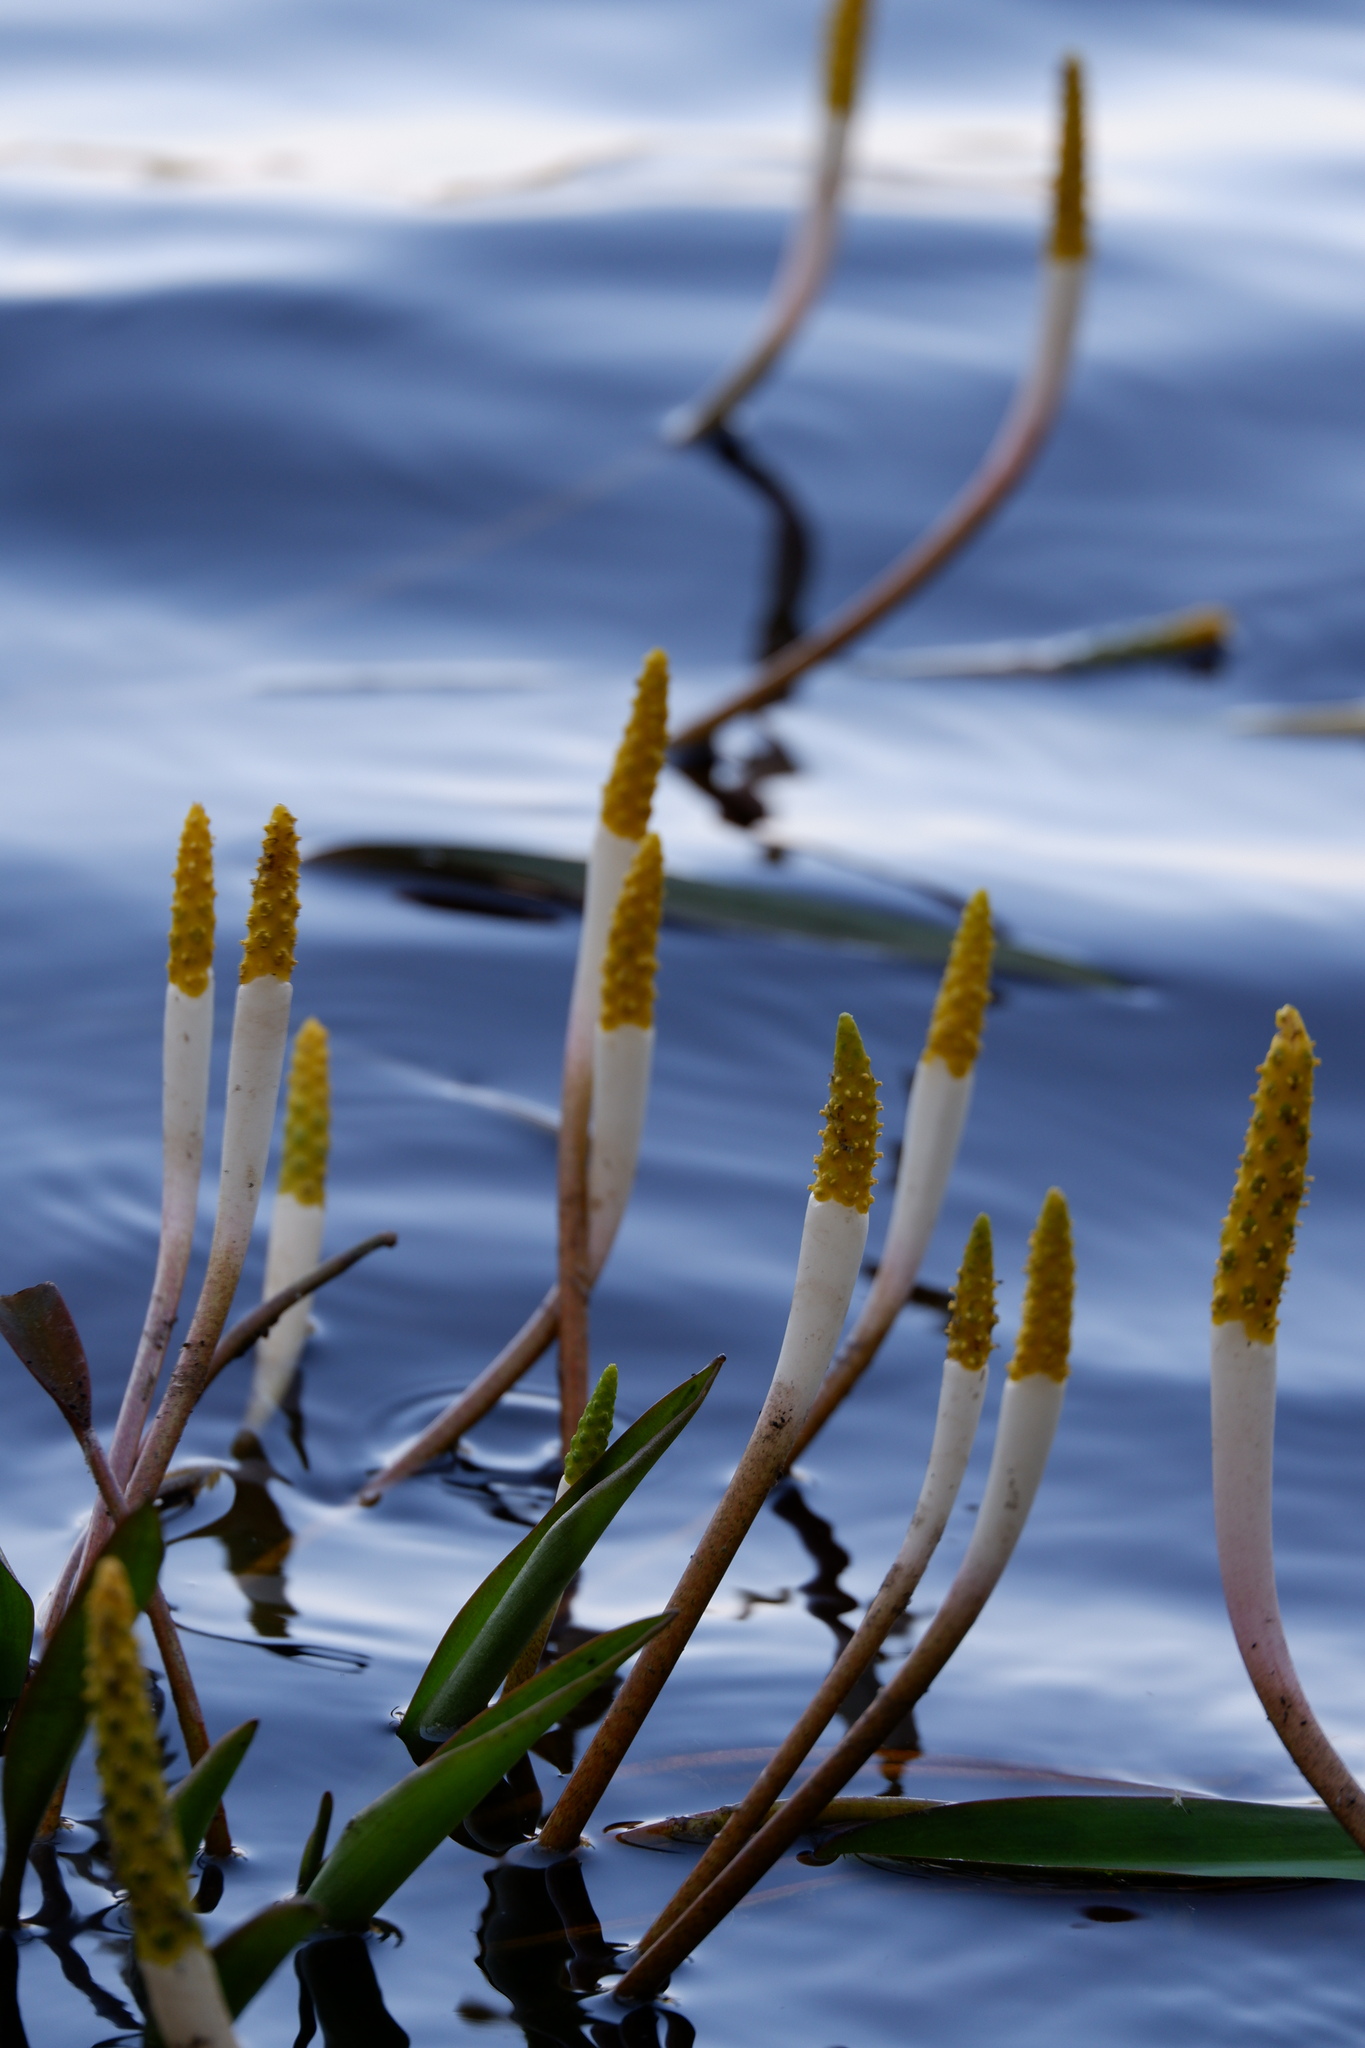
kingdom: Plantae
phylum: Tracheophyta
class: Liliopsida
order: Alismatales
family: Araceae
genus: Orontium
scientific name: Orontium aquaticum
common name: Golden-club
